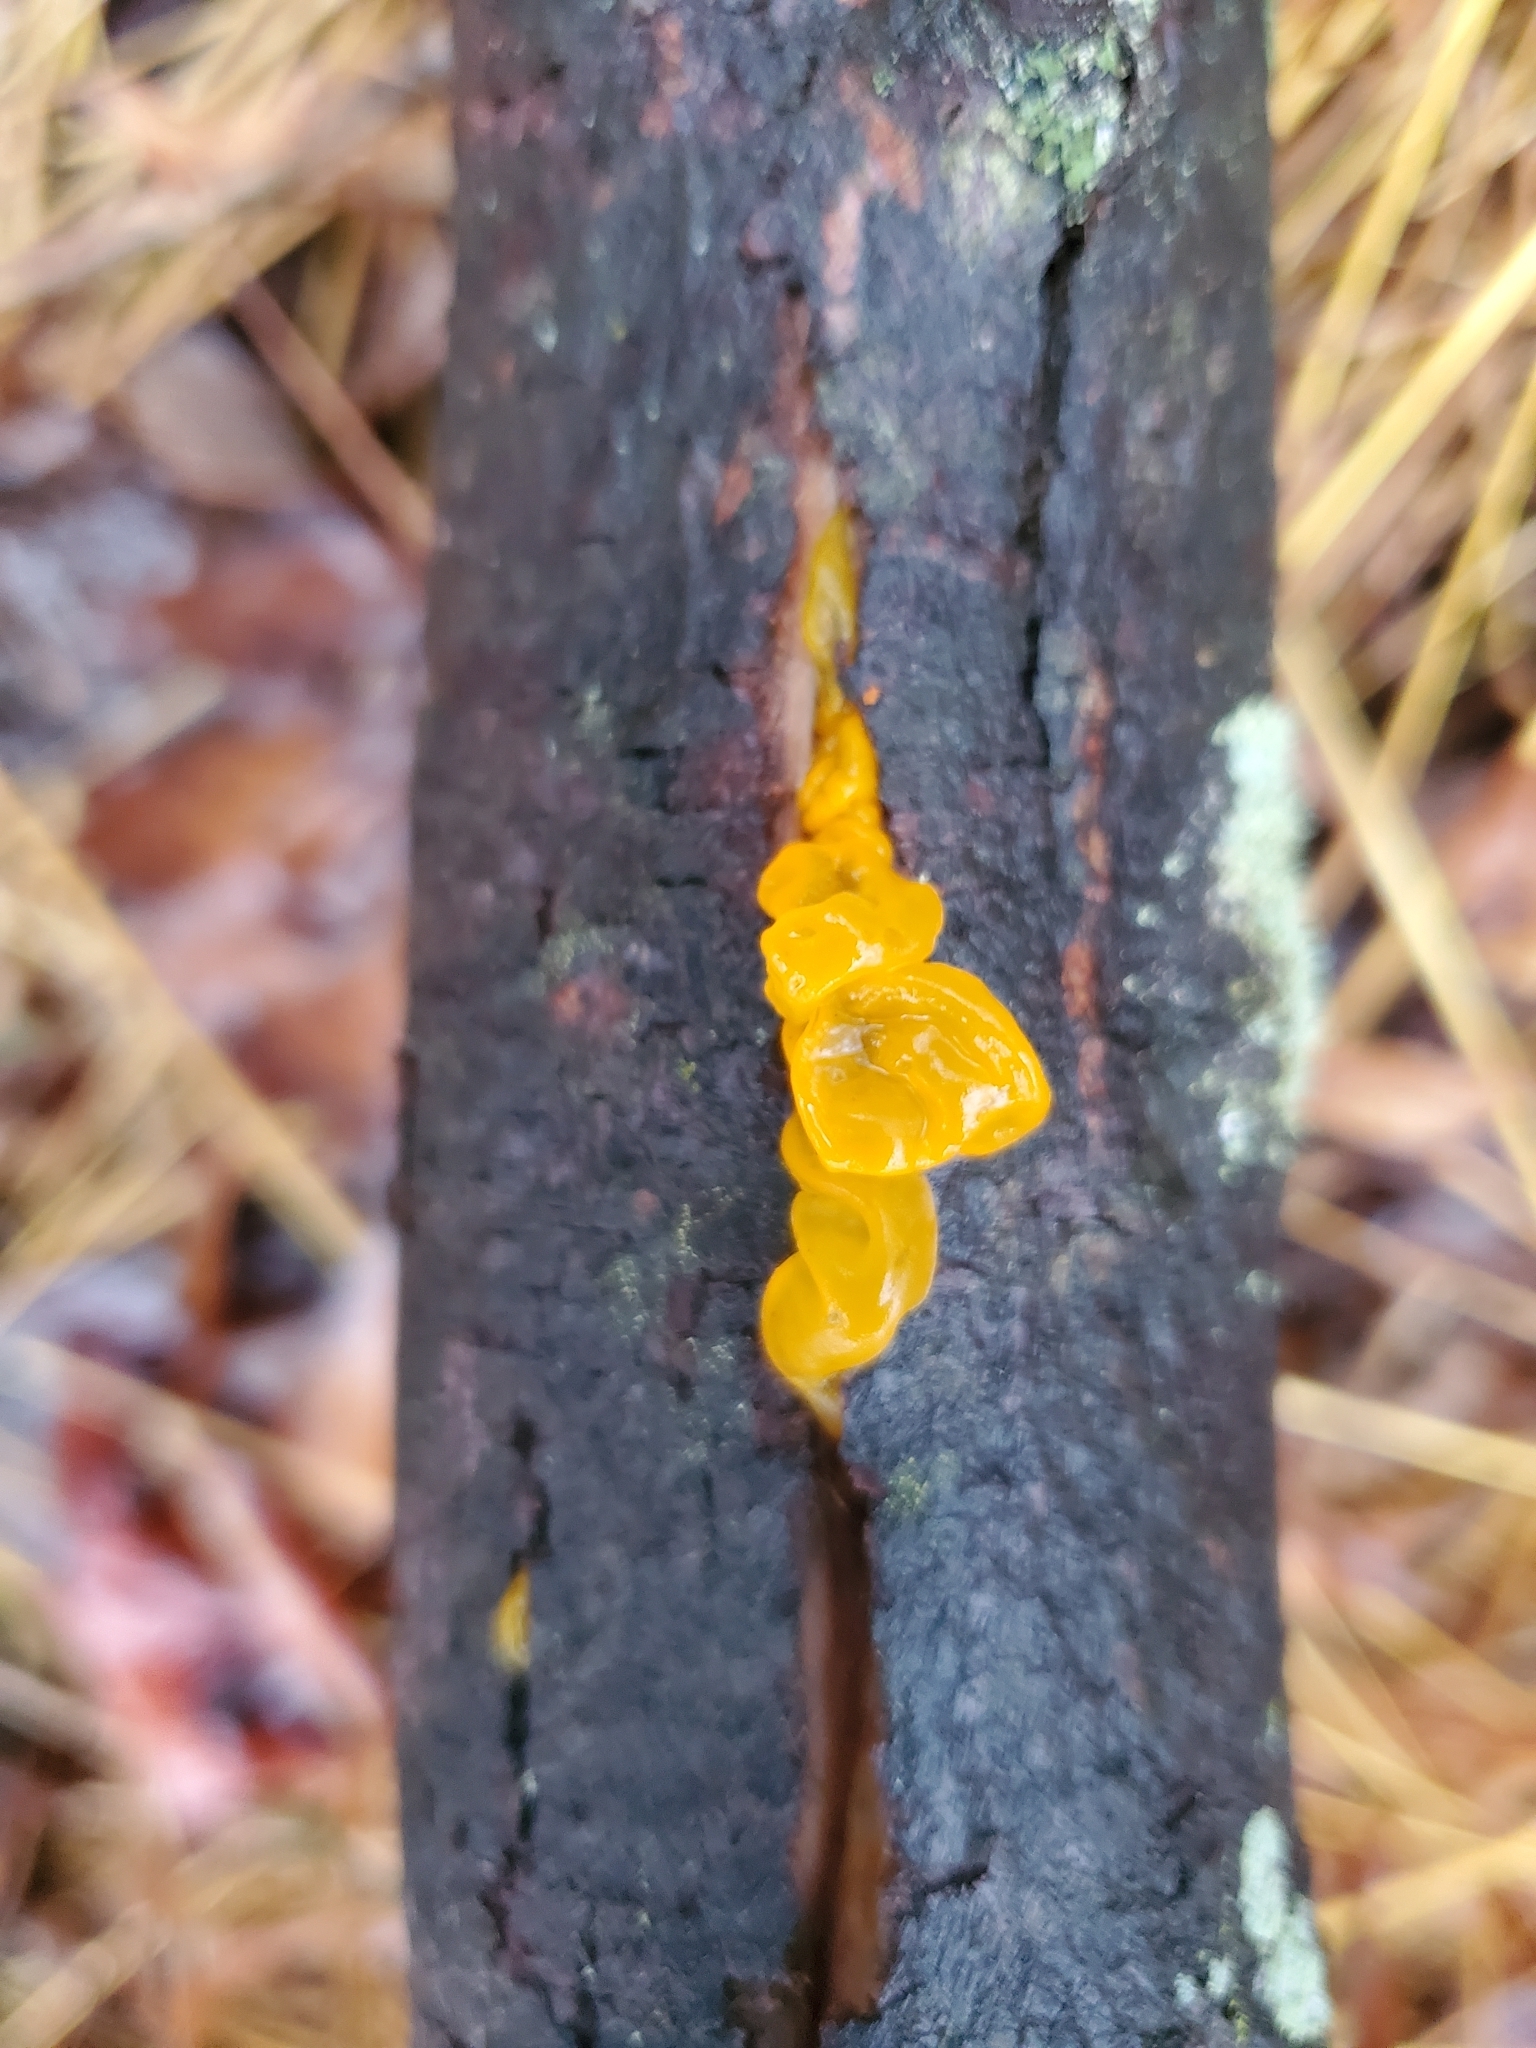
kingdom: Fungi
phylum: Basidiomycota
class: Tremellomycetes
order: Tremellales
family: Tremellaceae
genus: Tremella
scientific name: Tremella mesenterica
